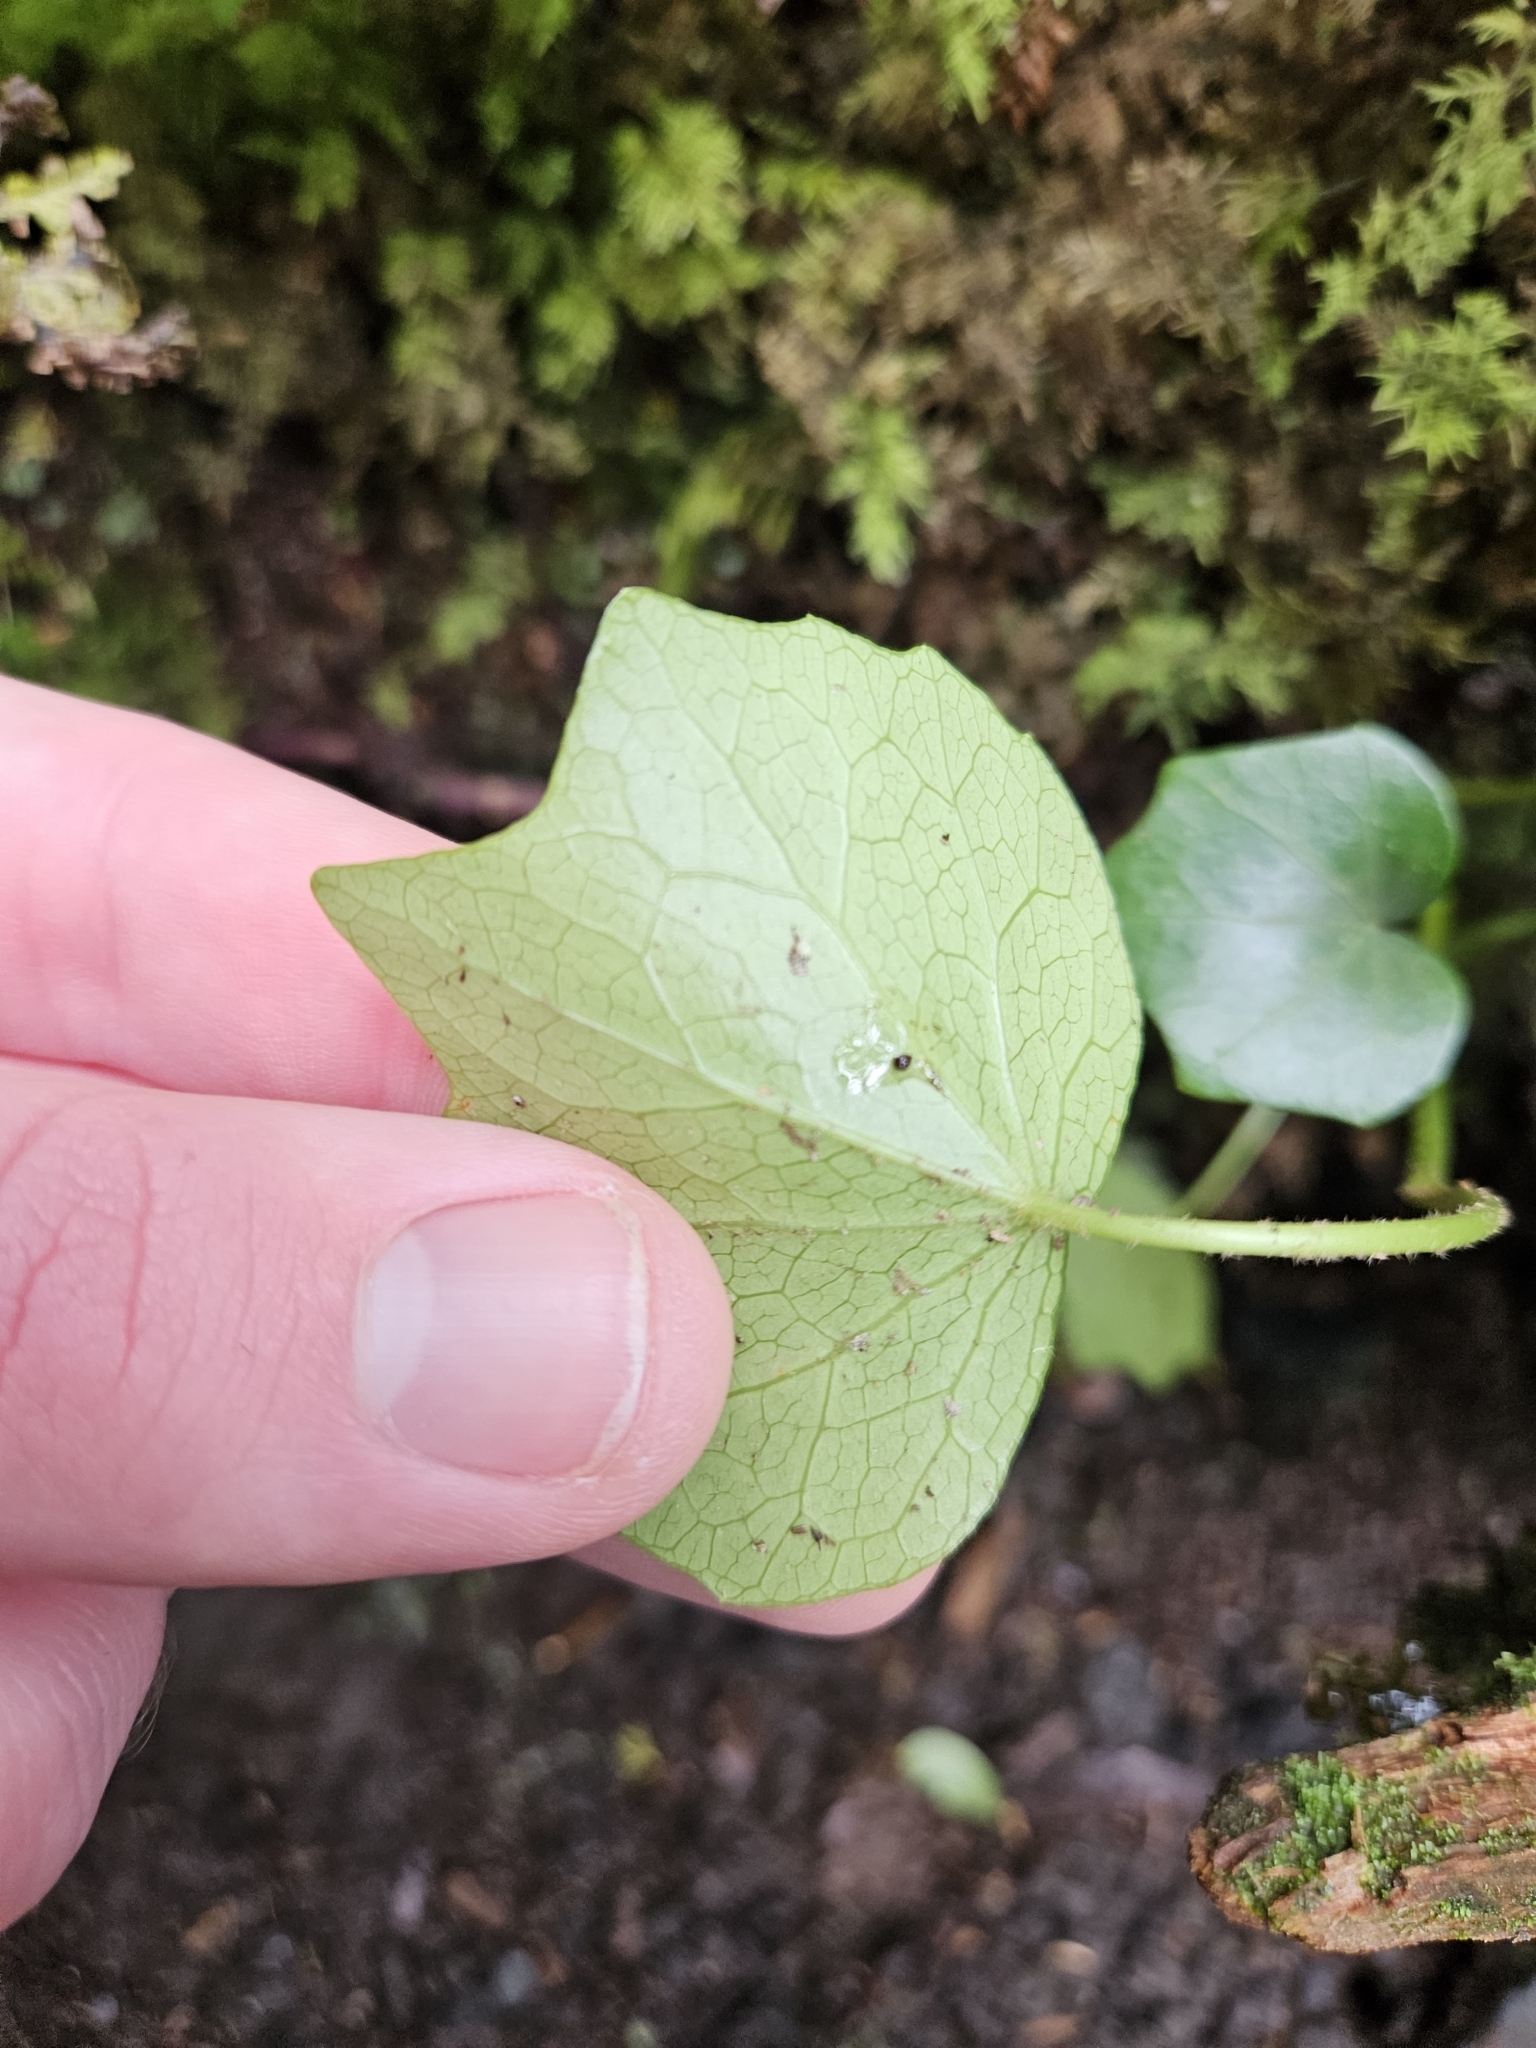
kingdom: Plantae
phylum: Tracheophyta
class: Magnoliopsida
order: Apiales
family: Araliaceae
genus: Hedera
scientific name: Hedera azorica
